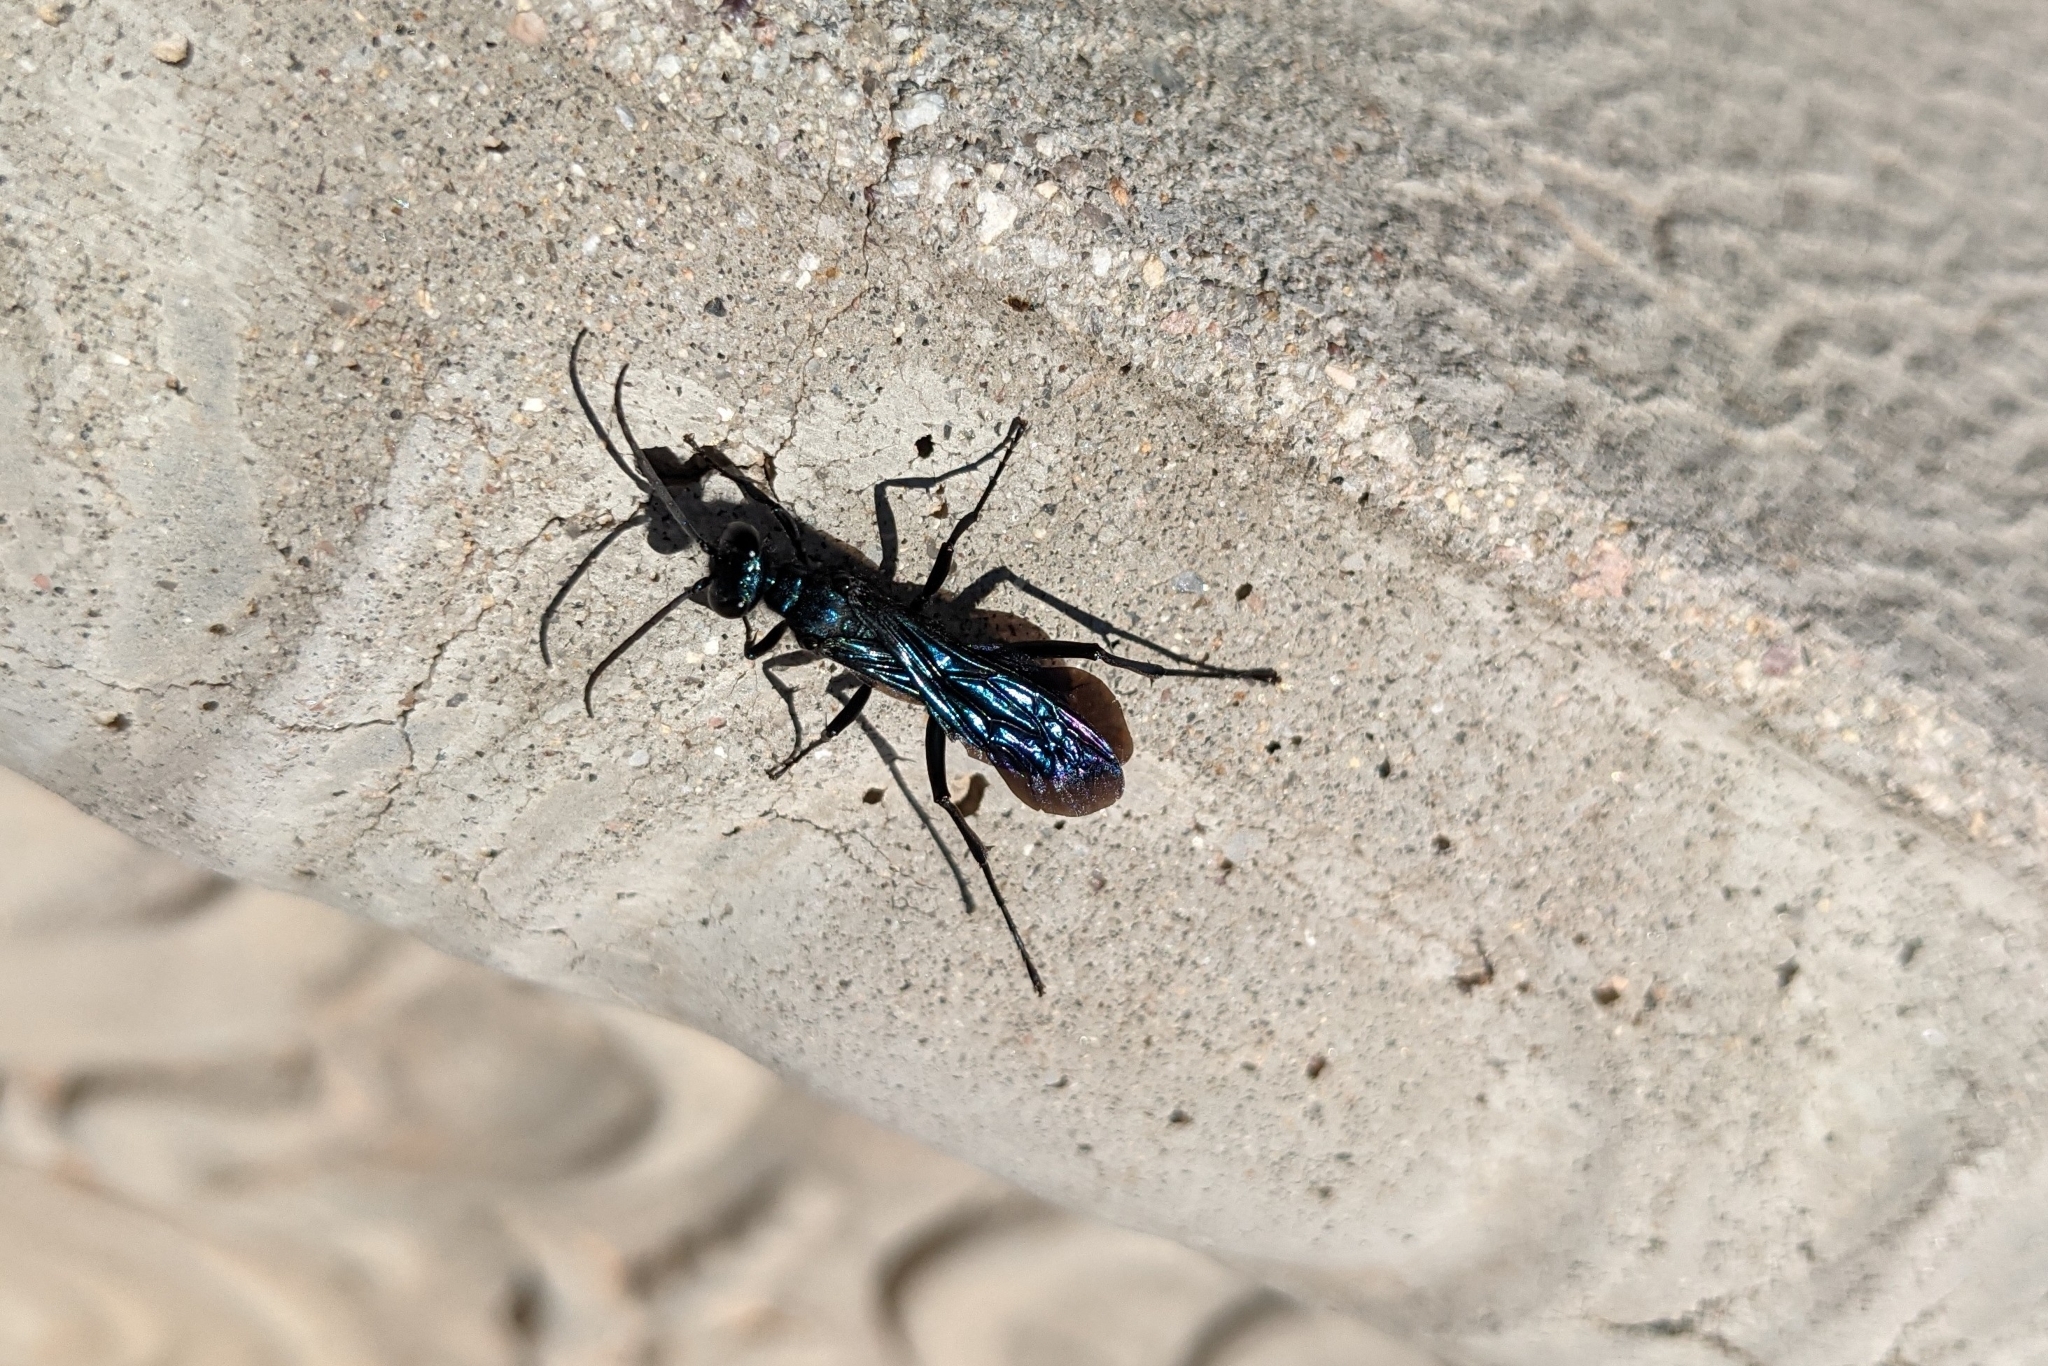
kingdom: Animalia
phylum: Arthropoda
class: Insecta
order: Hymenoptera
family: Sphecidae
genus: Chalybion
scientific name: Chalybion californicum
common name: Mud dauber
